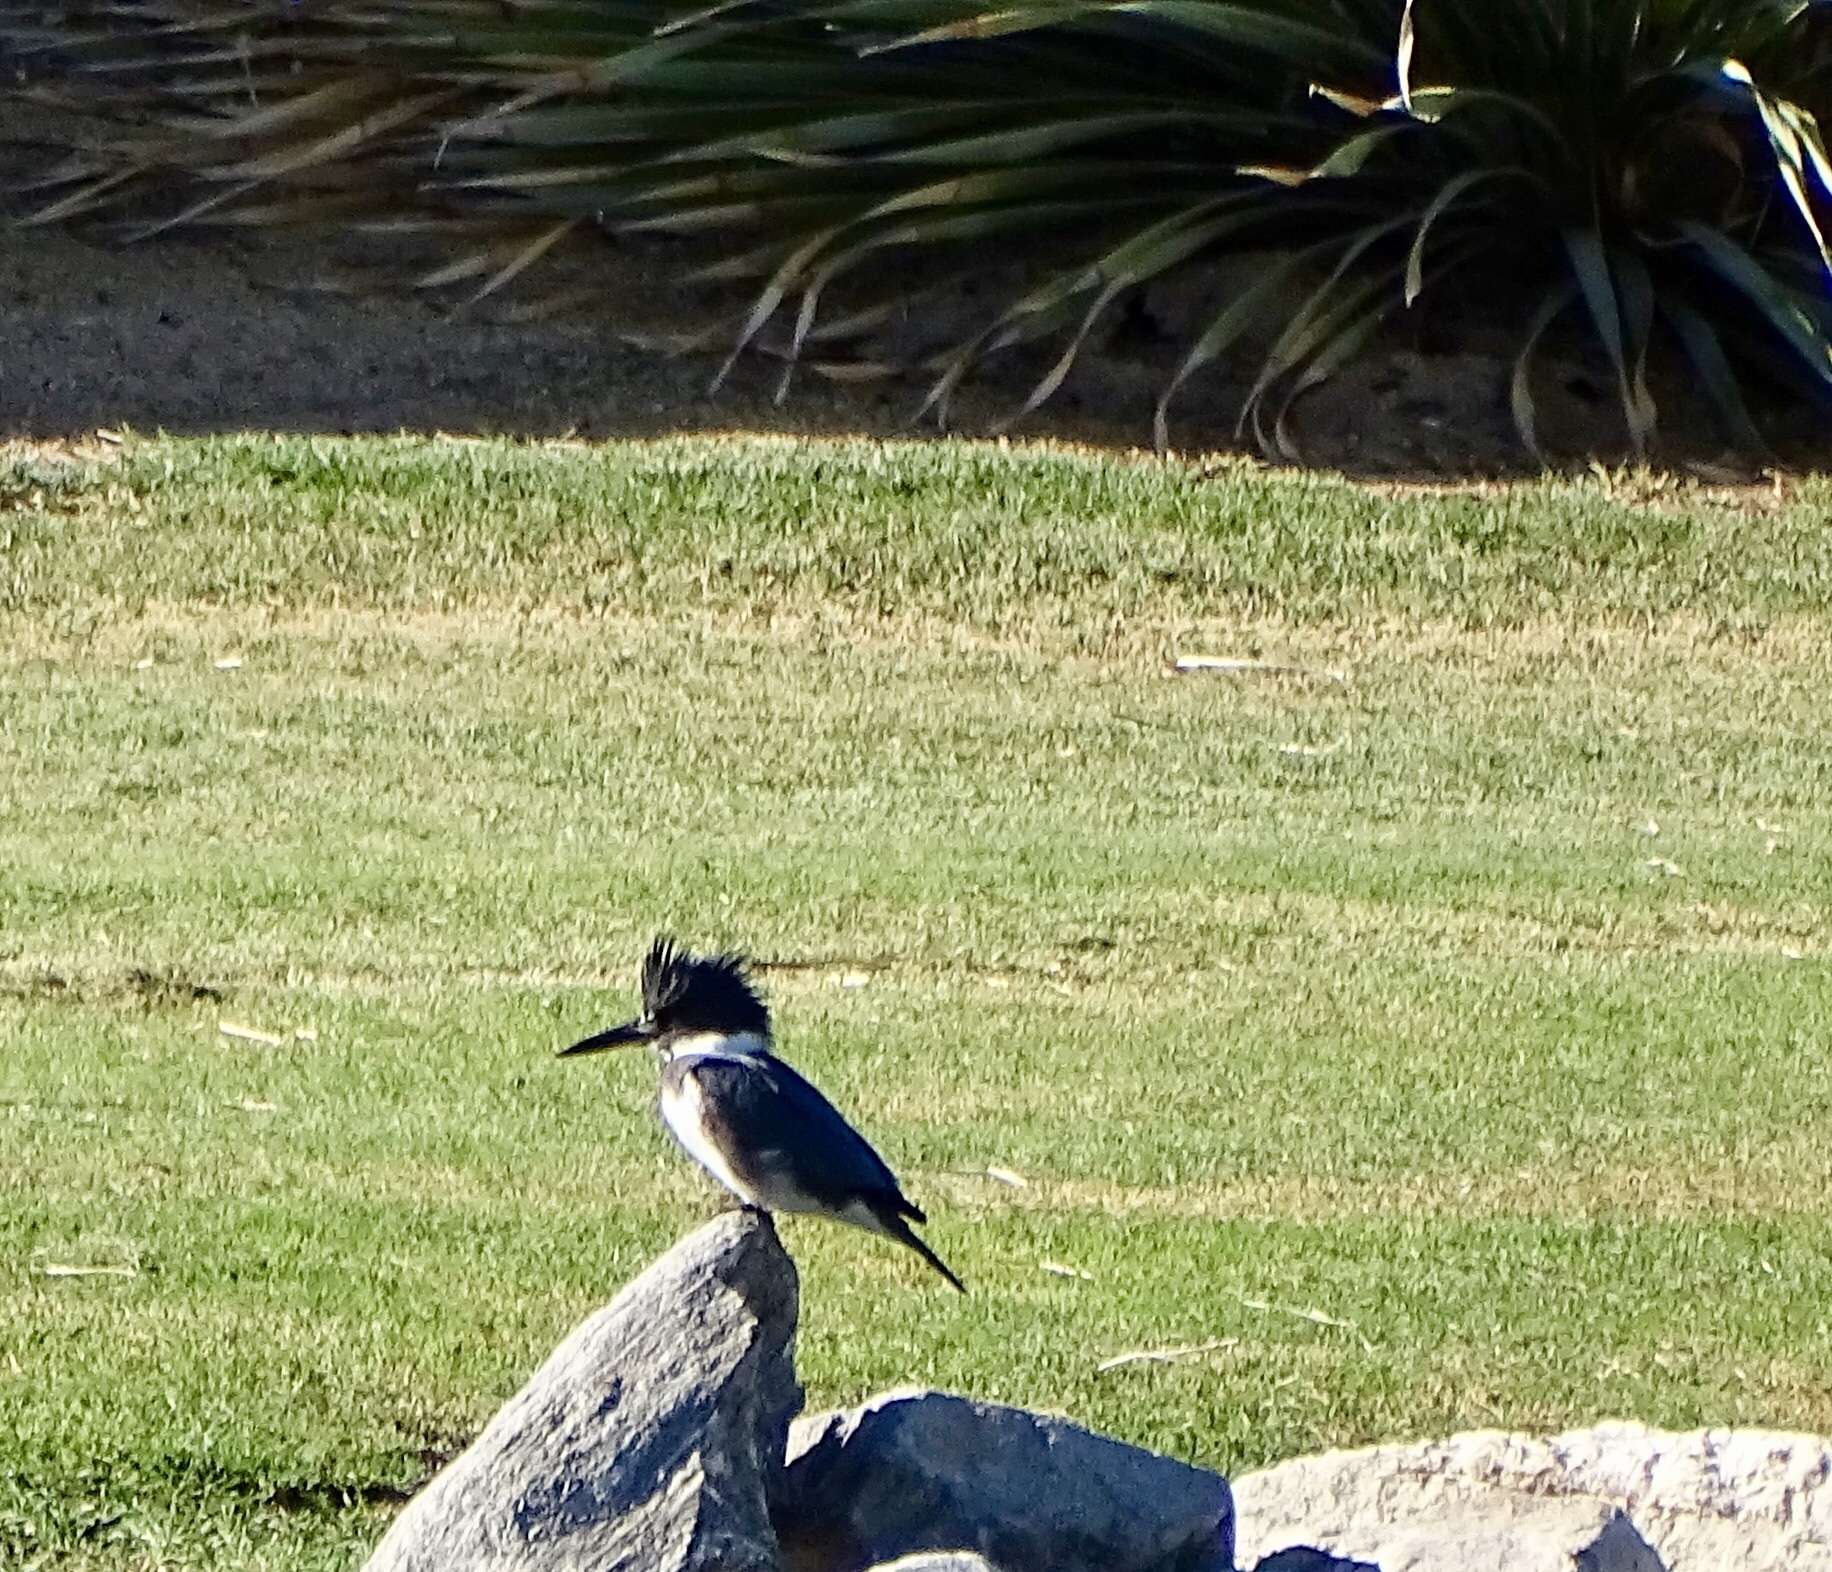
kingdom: Animalia
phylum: Chordata
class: Aves
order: Coraciiformes
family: Alcedinidae
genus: Megaceryle
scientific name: Megaceryle alcyon
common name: Belted kingfisher
